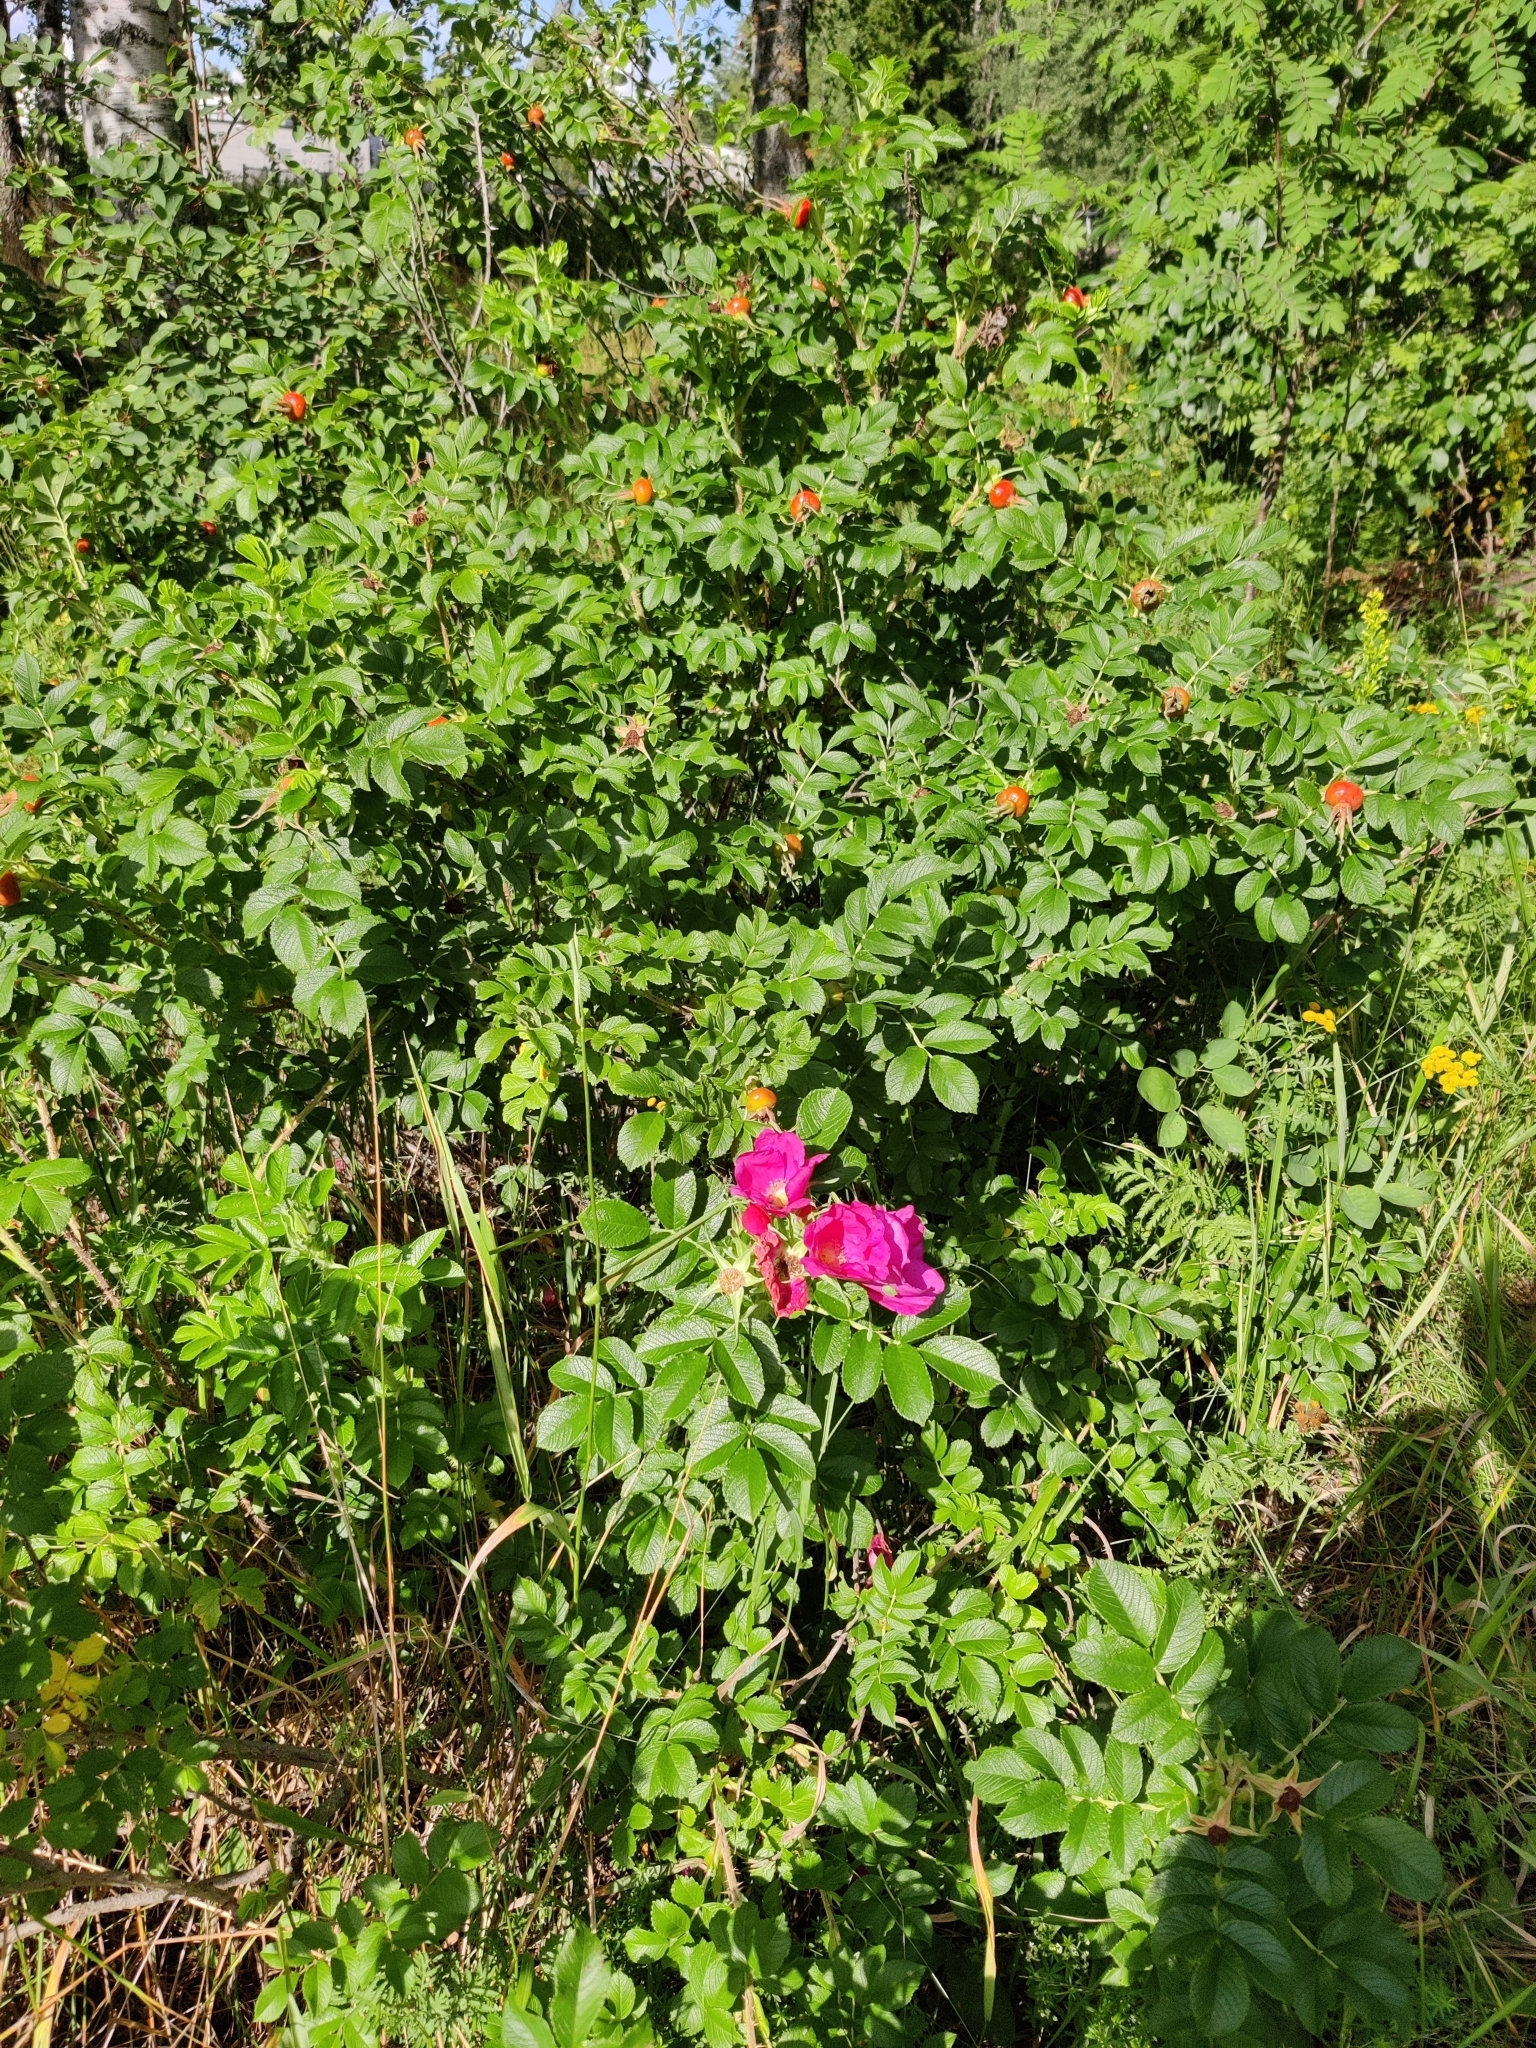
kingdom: Plantae
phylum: Tracheophyta
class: Magnoliopsida
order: Rosales
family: Rosaceae
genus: Rosa
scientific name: Rosa rugosa
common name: Japanese rose
